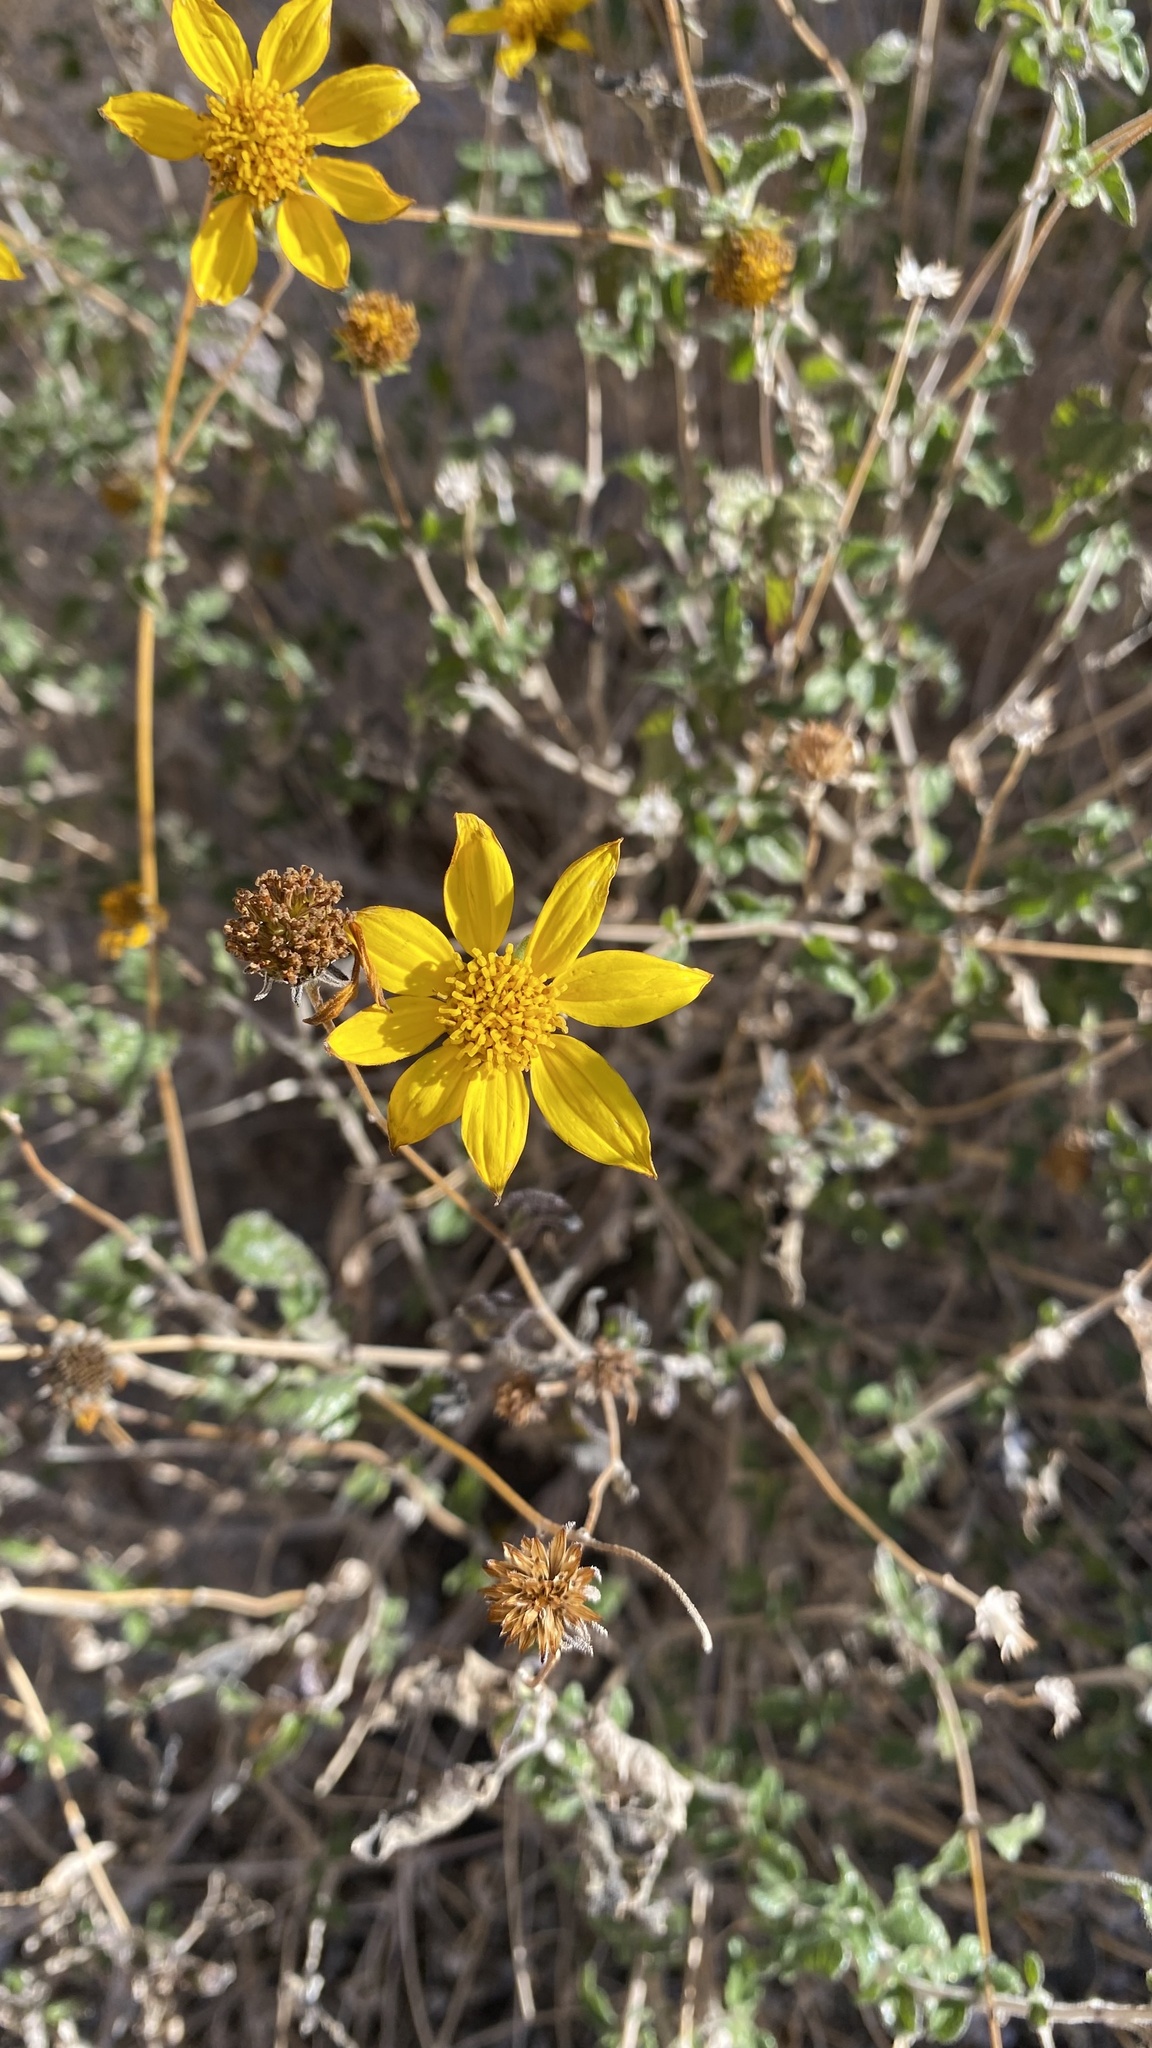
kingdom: Plantae
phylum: Tracheophyta
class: Magnoliopsida
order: Asterales
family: Asteraceae
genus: Bahiopsis
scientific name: Bahiopsis parishii
